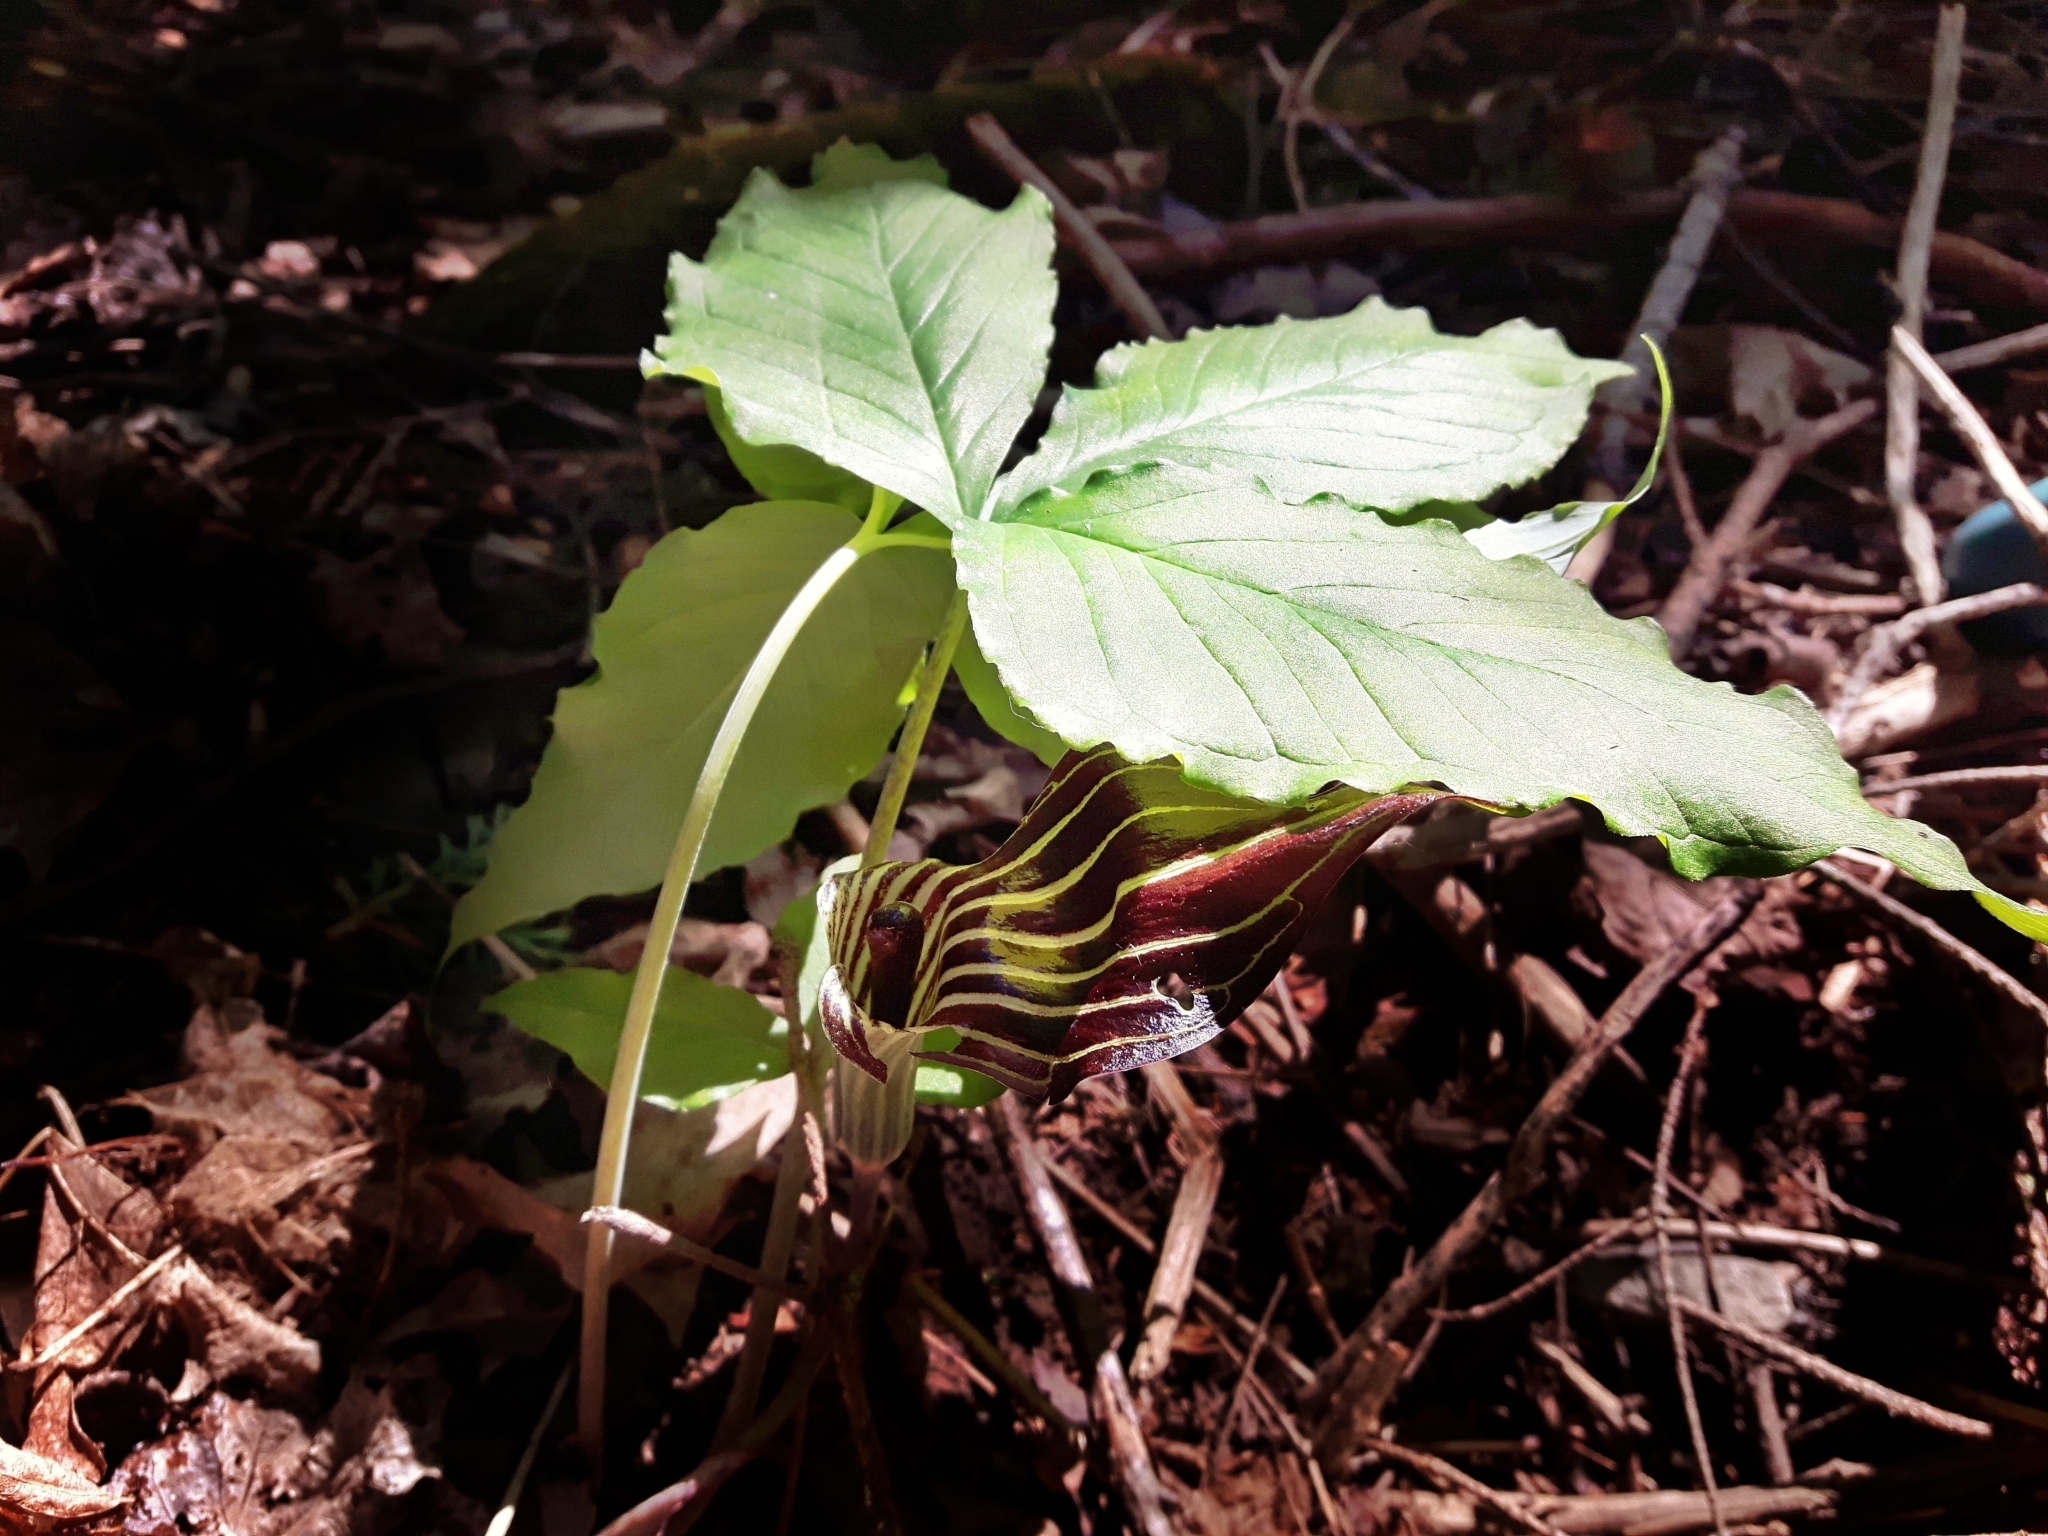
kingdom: Plantae
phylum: Tracheophyta
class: Liliopsida
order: Alismatales
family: Araceae
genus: Arisaema
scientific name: Arisaema triphyllum
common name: Jack-in-the-pulpit
